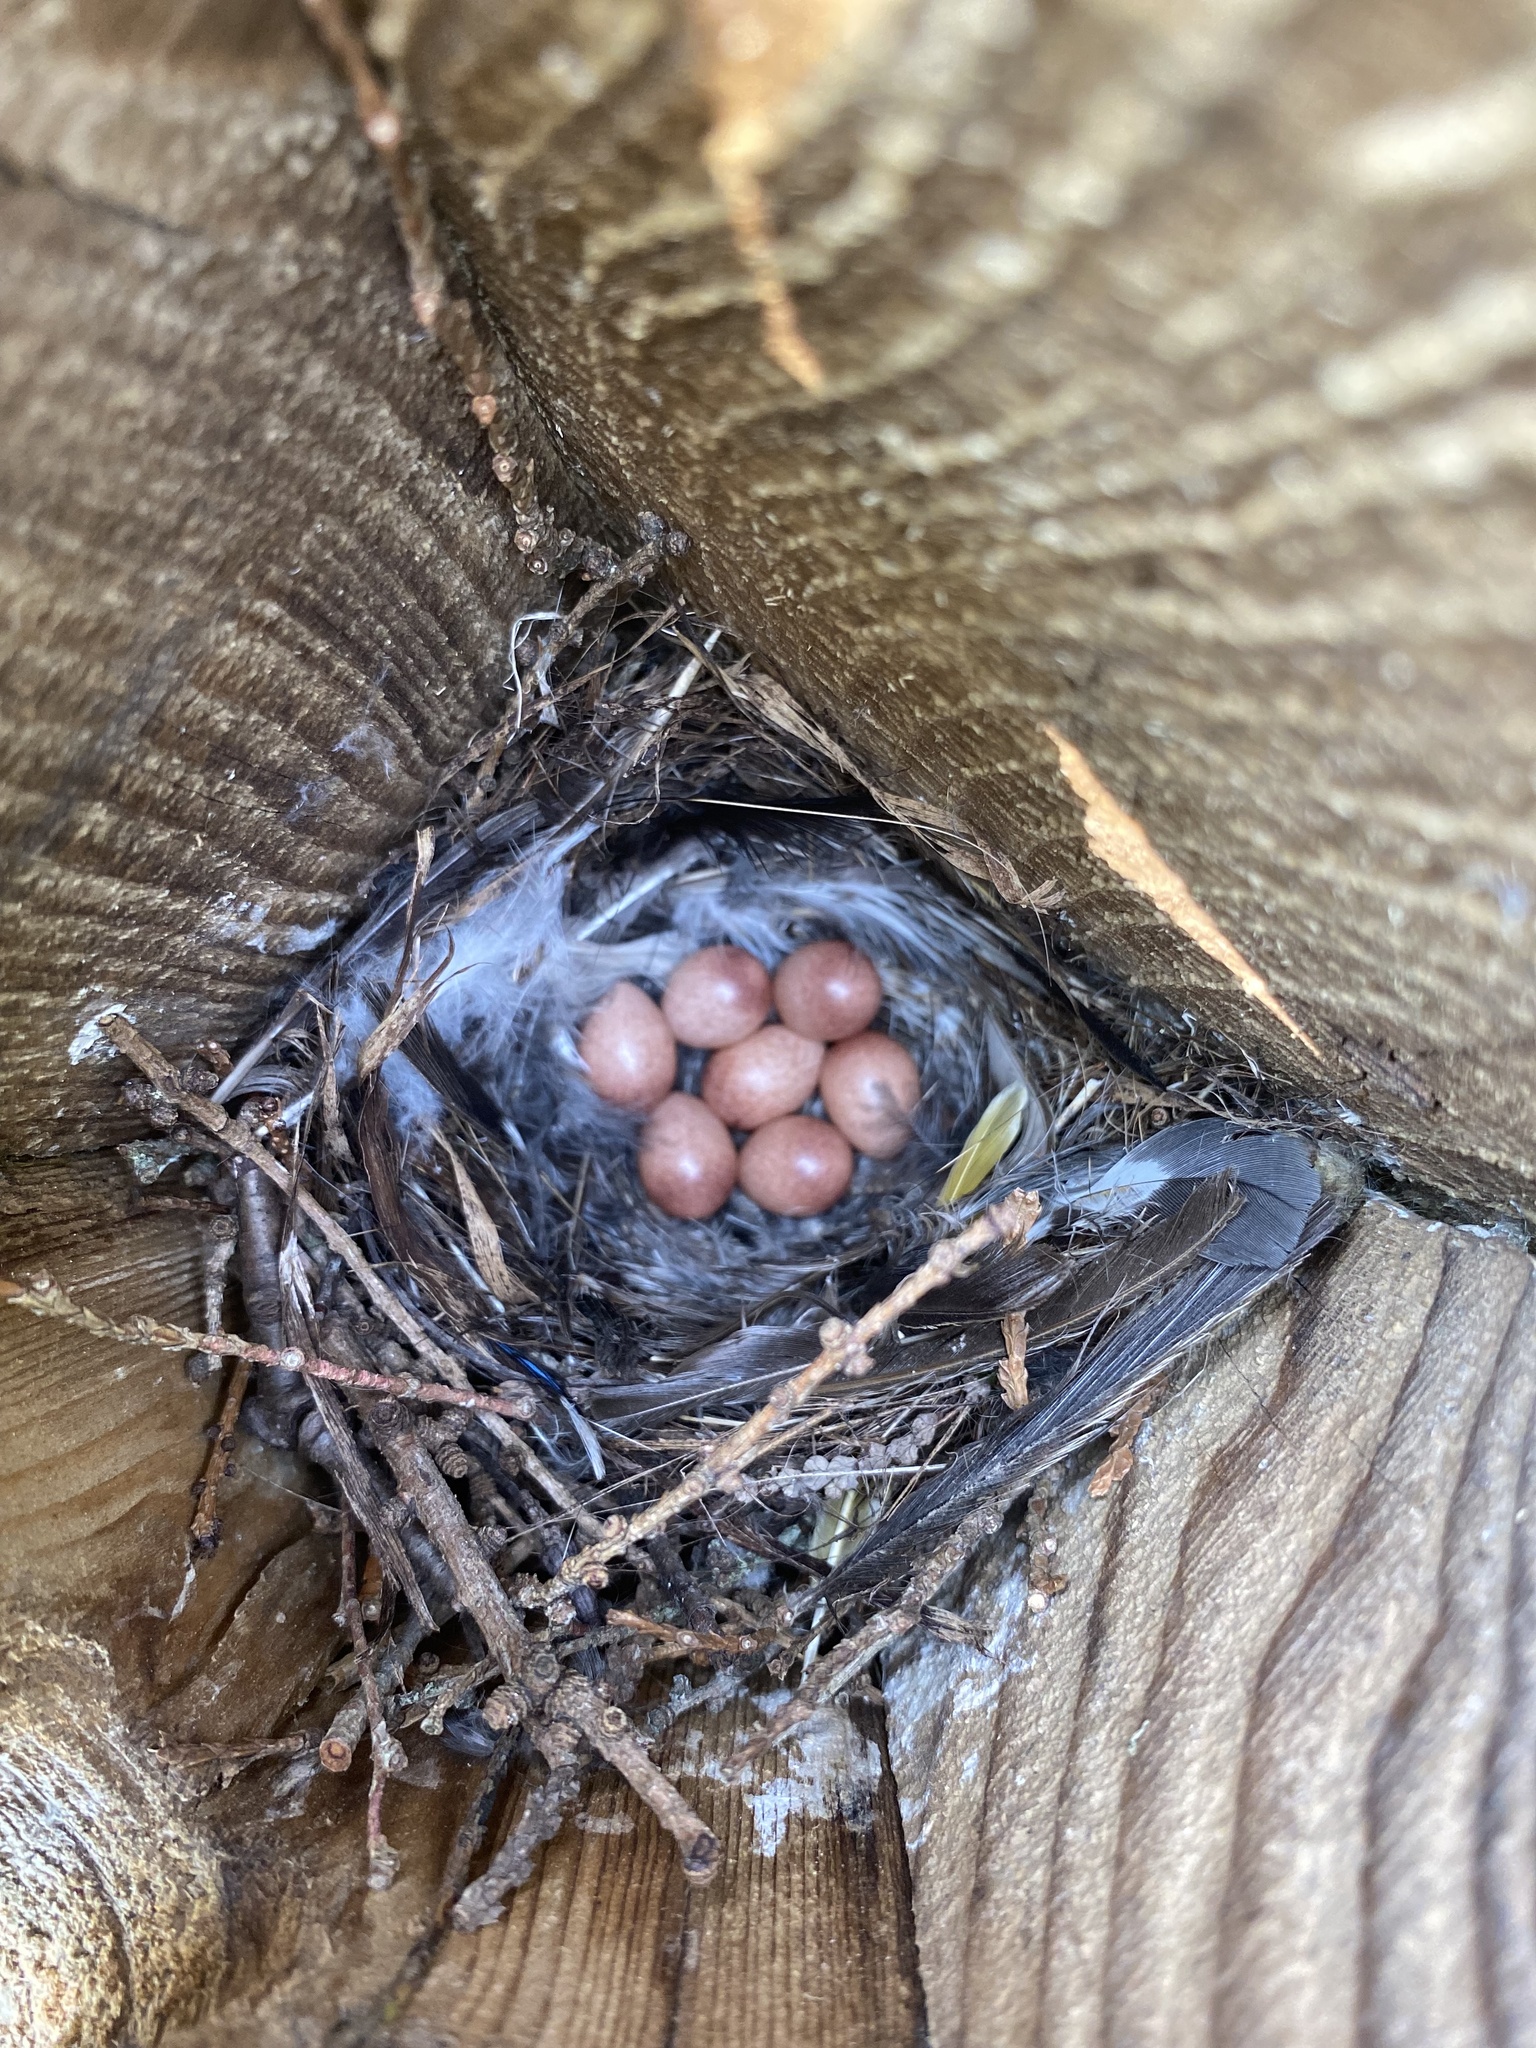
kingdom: Animalia
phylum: Chordata
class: Aves
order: Passeriformes
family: Troglodytidae
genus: Troglodytes
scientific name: Troglodytes aedon
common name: House wren
